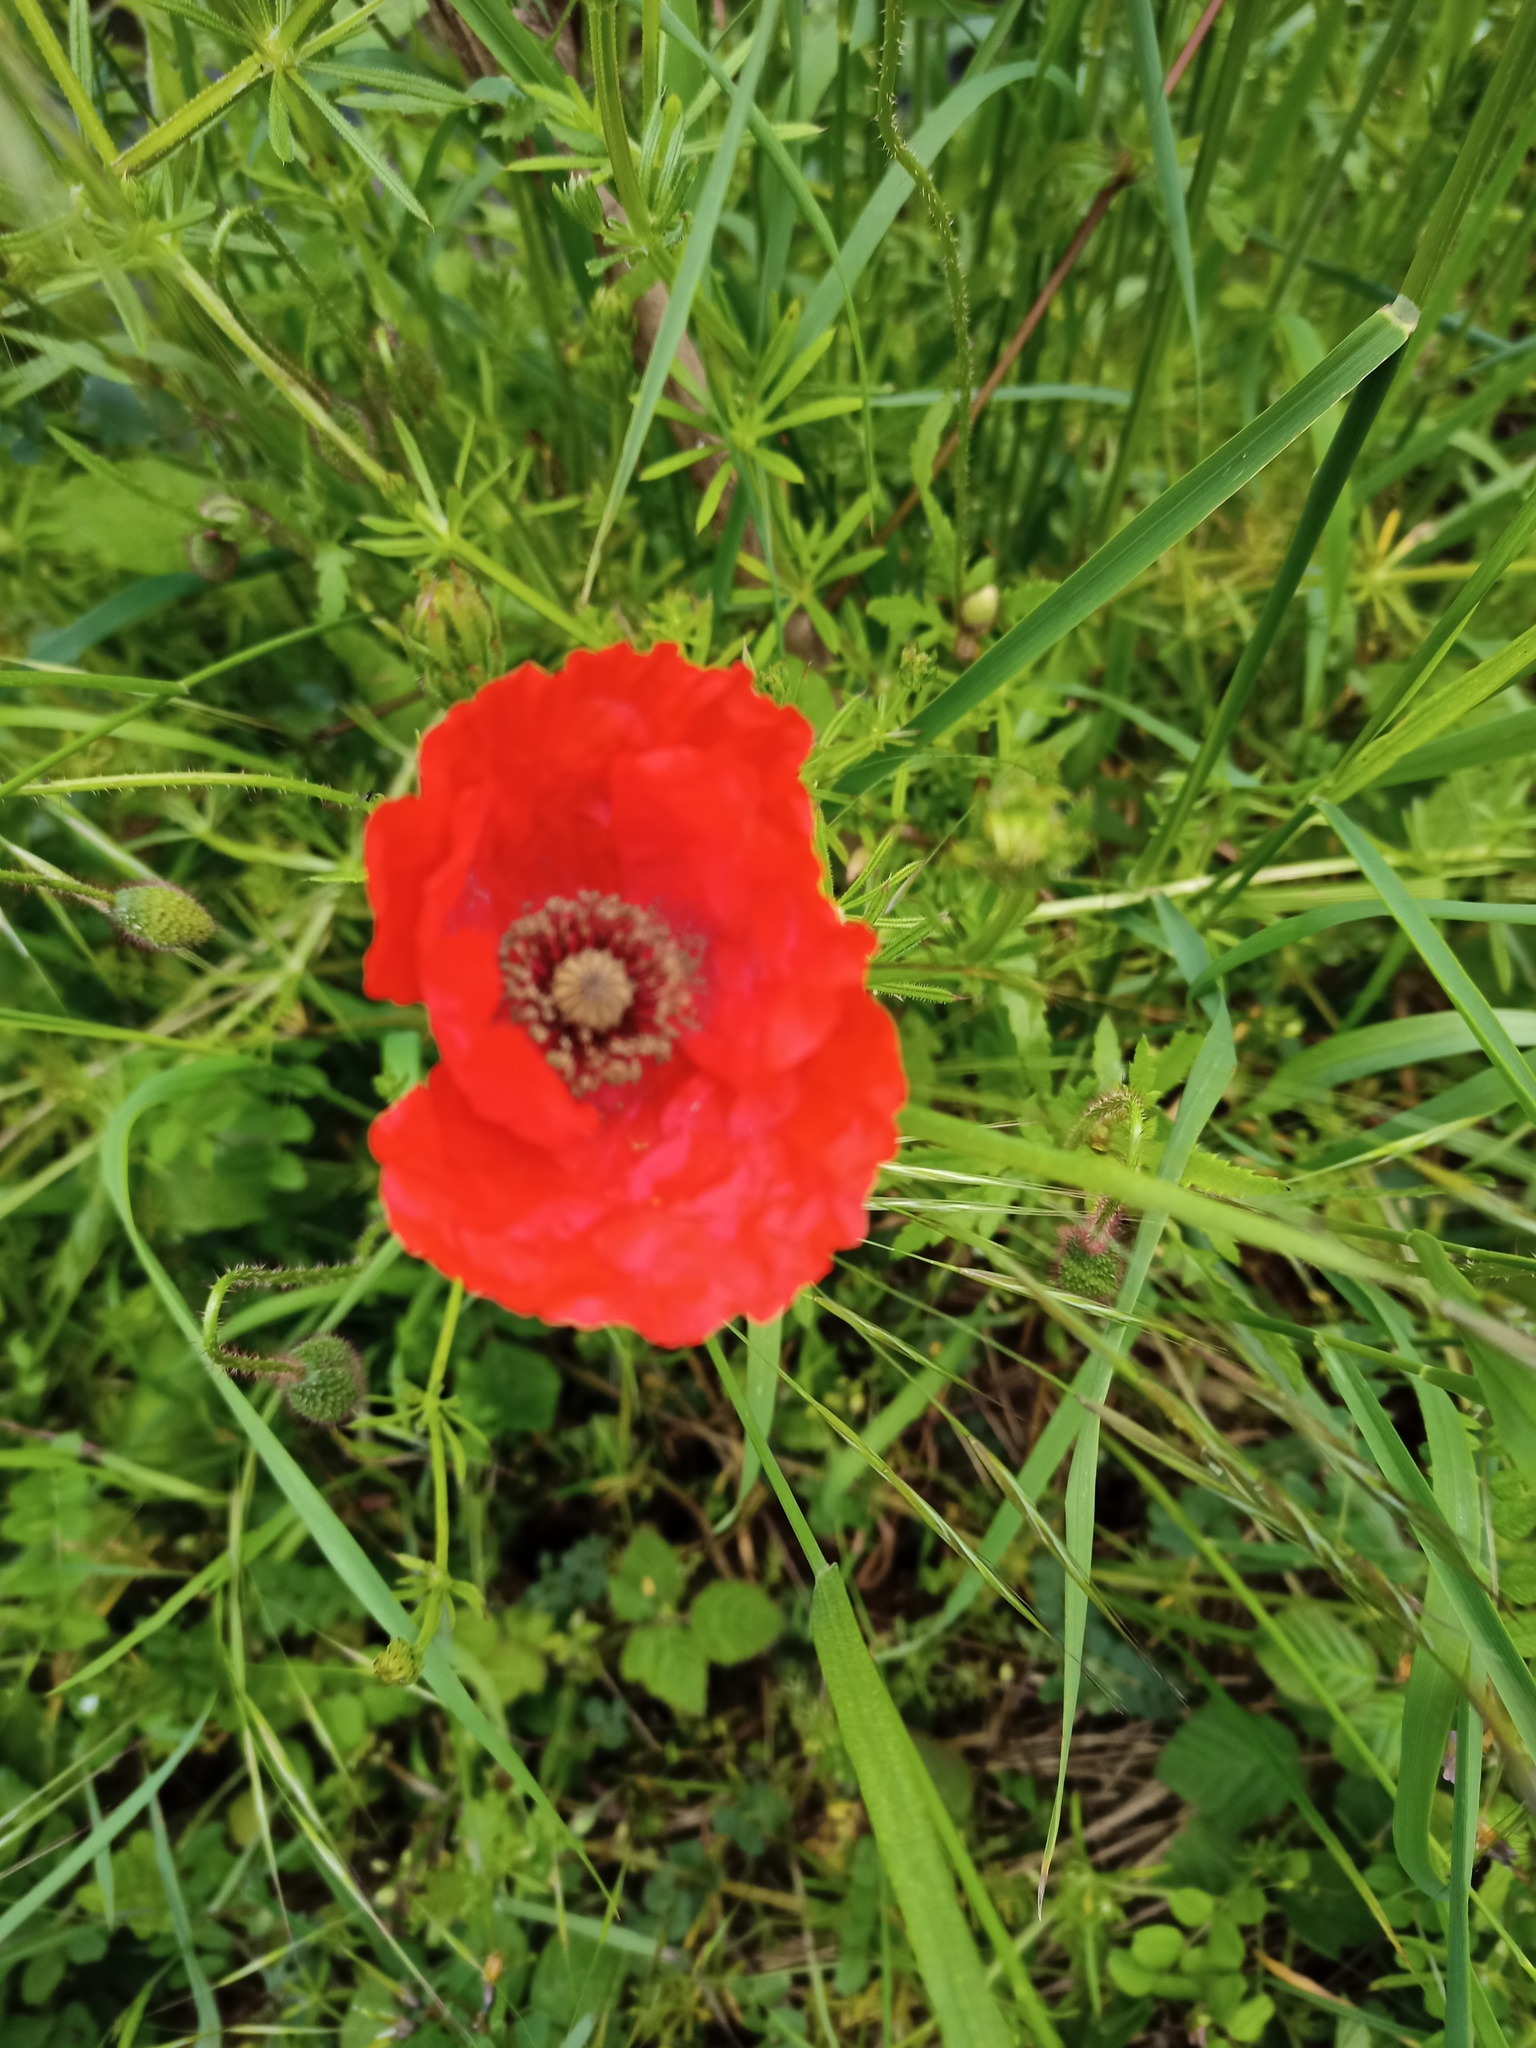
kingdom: Plantae
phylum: Tracheophyta
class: Magnoliopsida
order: Ranunculales
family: Papaveraceae
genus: Papaver
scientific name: Papaver rhoeas
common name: Corn poppy
